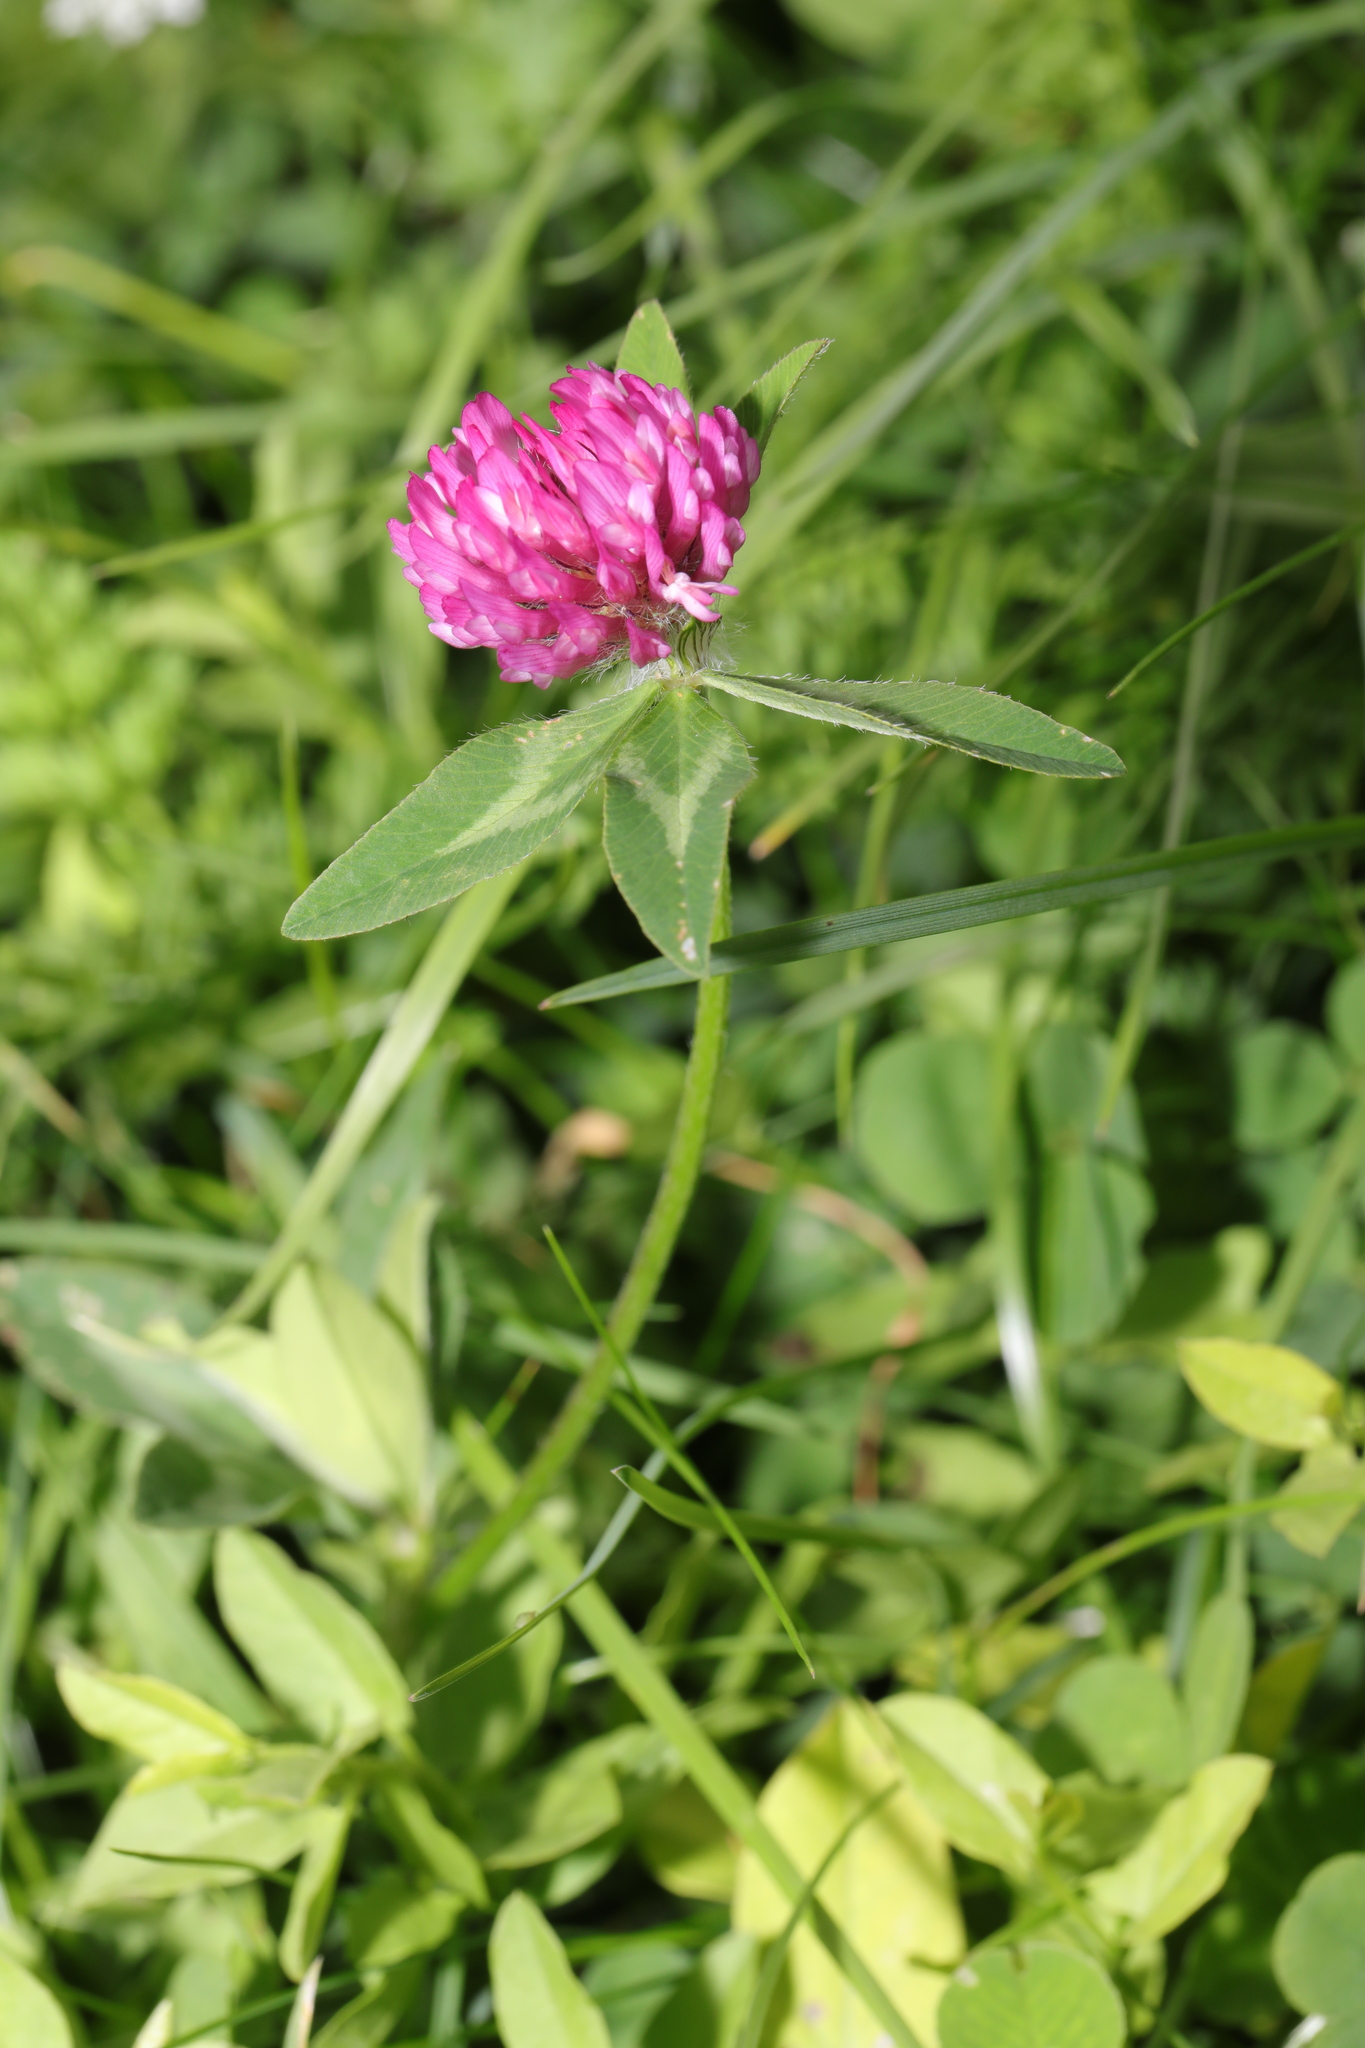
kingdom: Plantae
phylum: Tracheophyta
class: Magnoliopsida
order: Fabales
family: Fabaceae
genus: Trifolium
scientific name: Trifolium pratense
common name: Red clover
